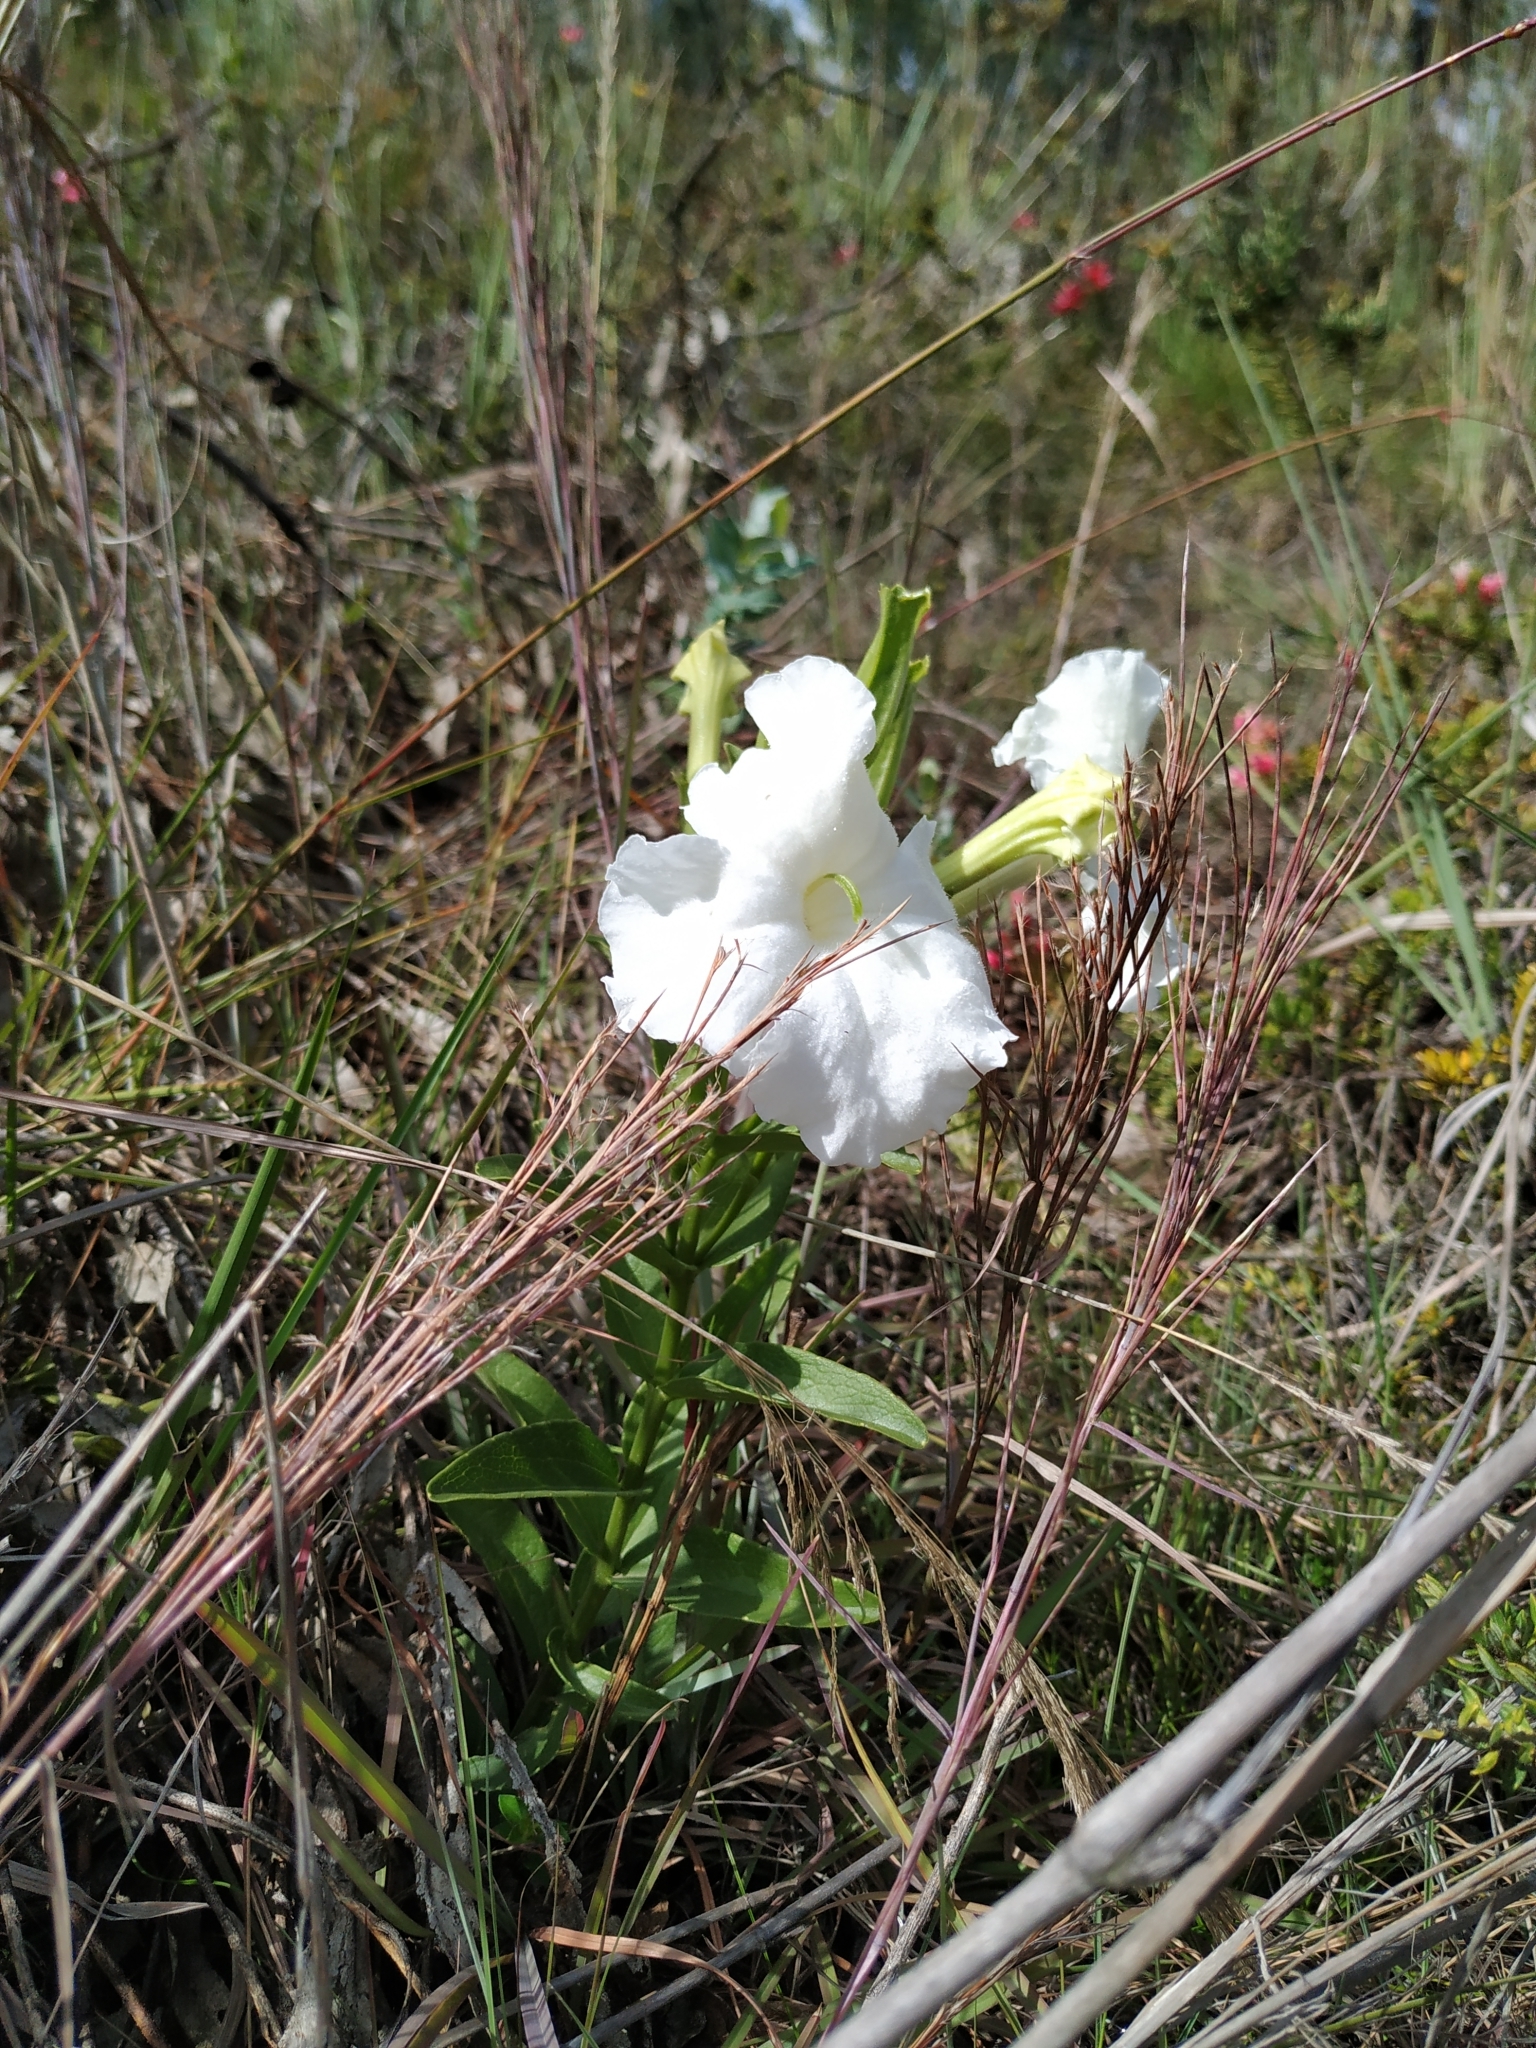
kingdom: Plantae
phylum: Tracheophyta
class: Magnoliopsida
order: Lamiales
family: Orobanchaceae
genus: Escobedia
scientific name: Escobedia grandiflora
